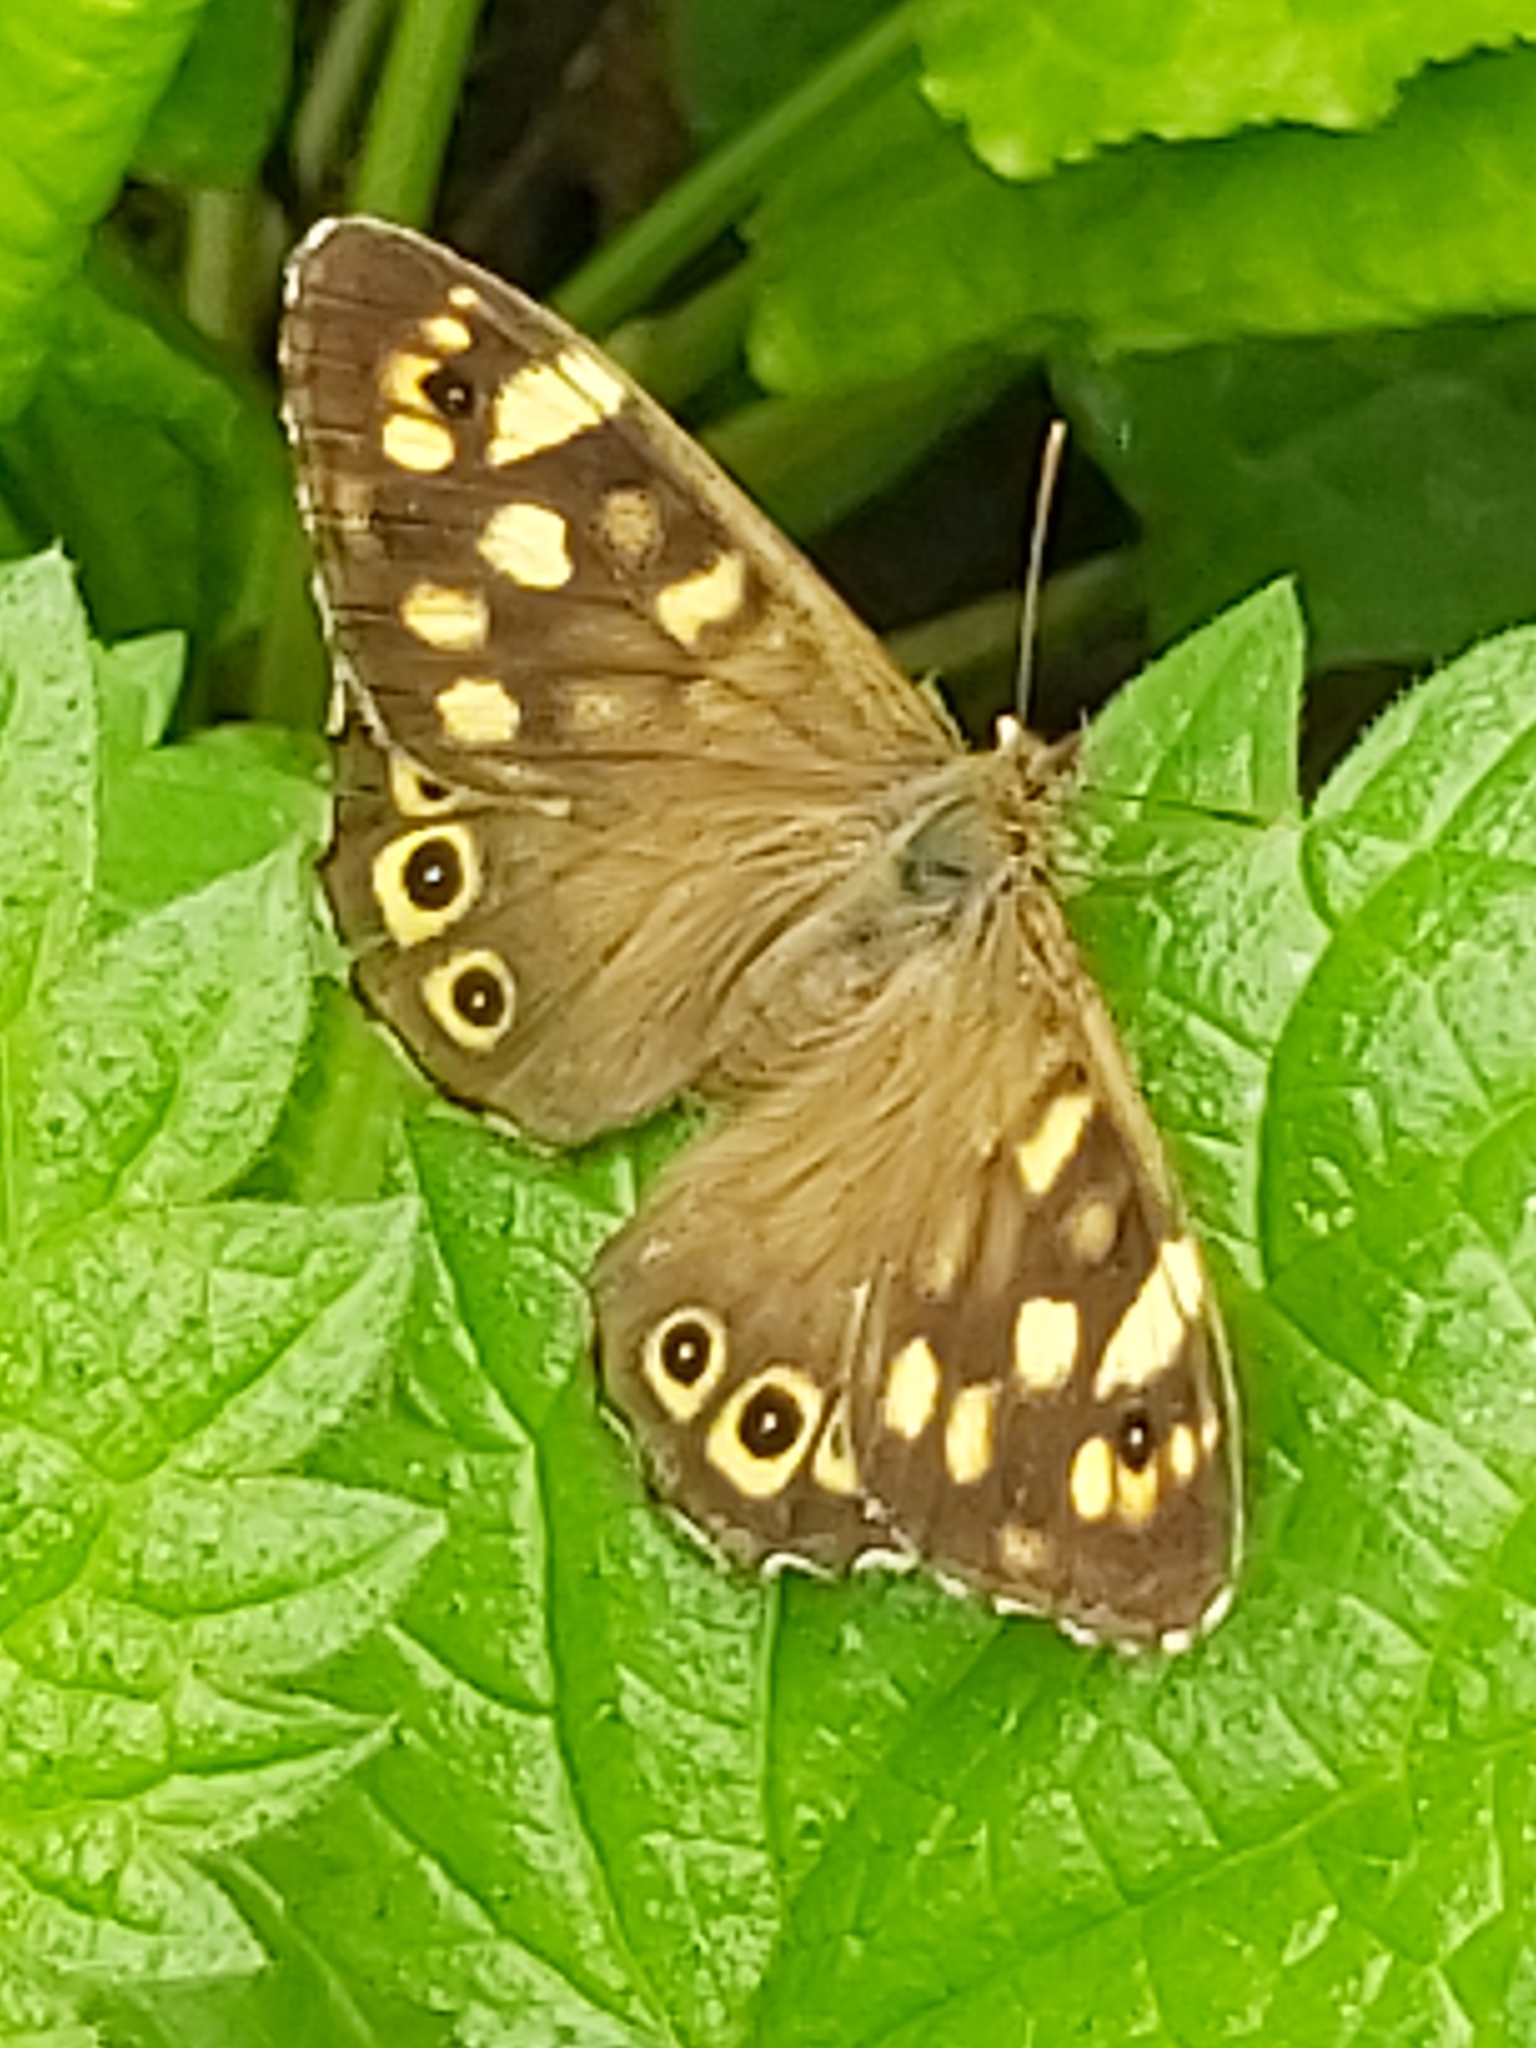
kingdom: Animalia
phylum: Arthropoda
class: Insecta
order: Lepidoptera
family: Nymphalidae
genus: Pararge
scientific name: Pararge aegeria
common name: Speckled wood
